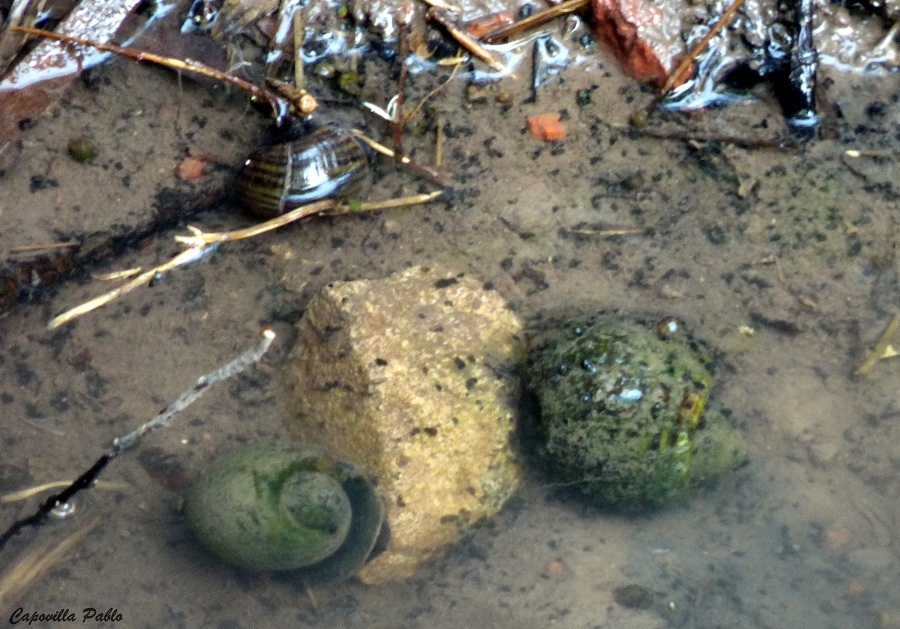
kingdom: Animalia
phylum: Mollusca
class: Gastropoda
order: Architaenioglossa
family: Ampullariidae
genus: Pomacea
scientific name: Pomacea canaliculata
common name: Channeled applesnail
